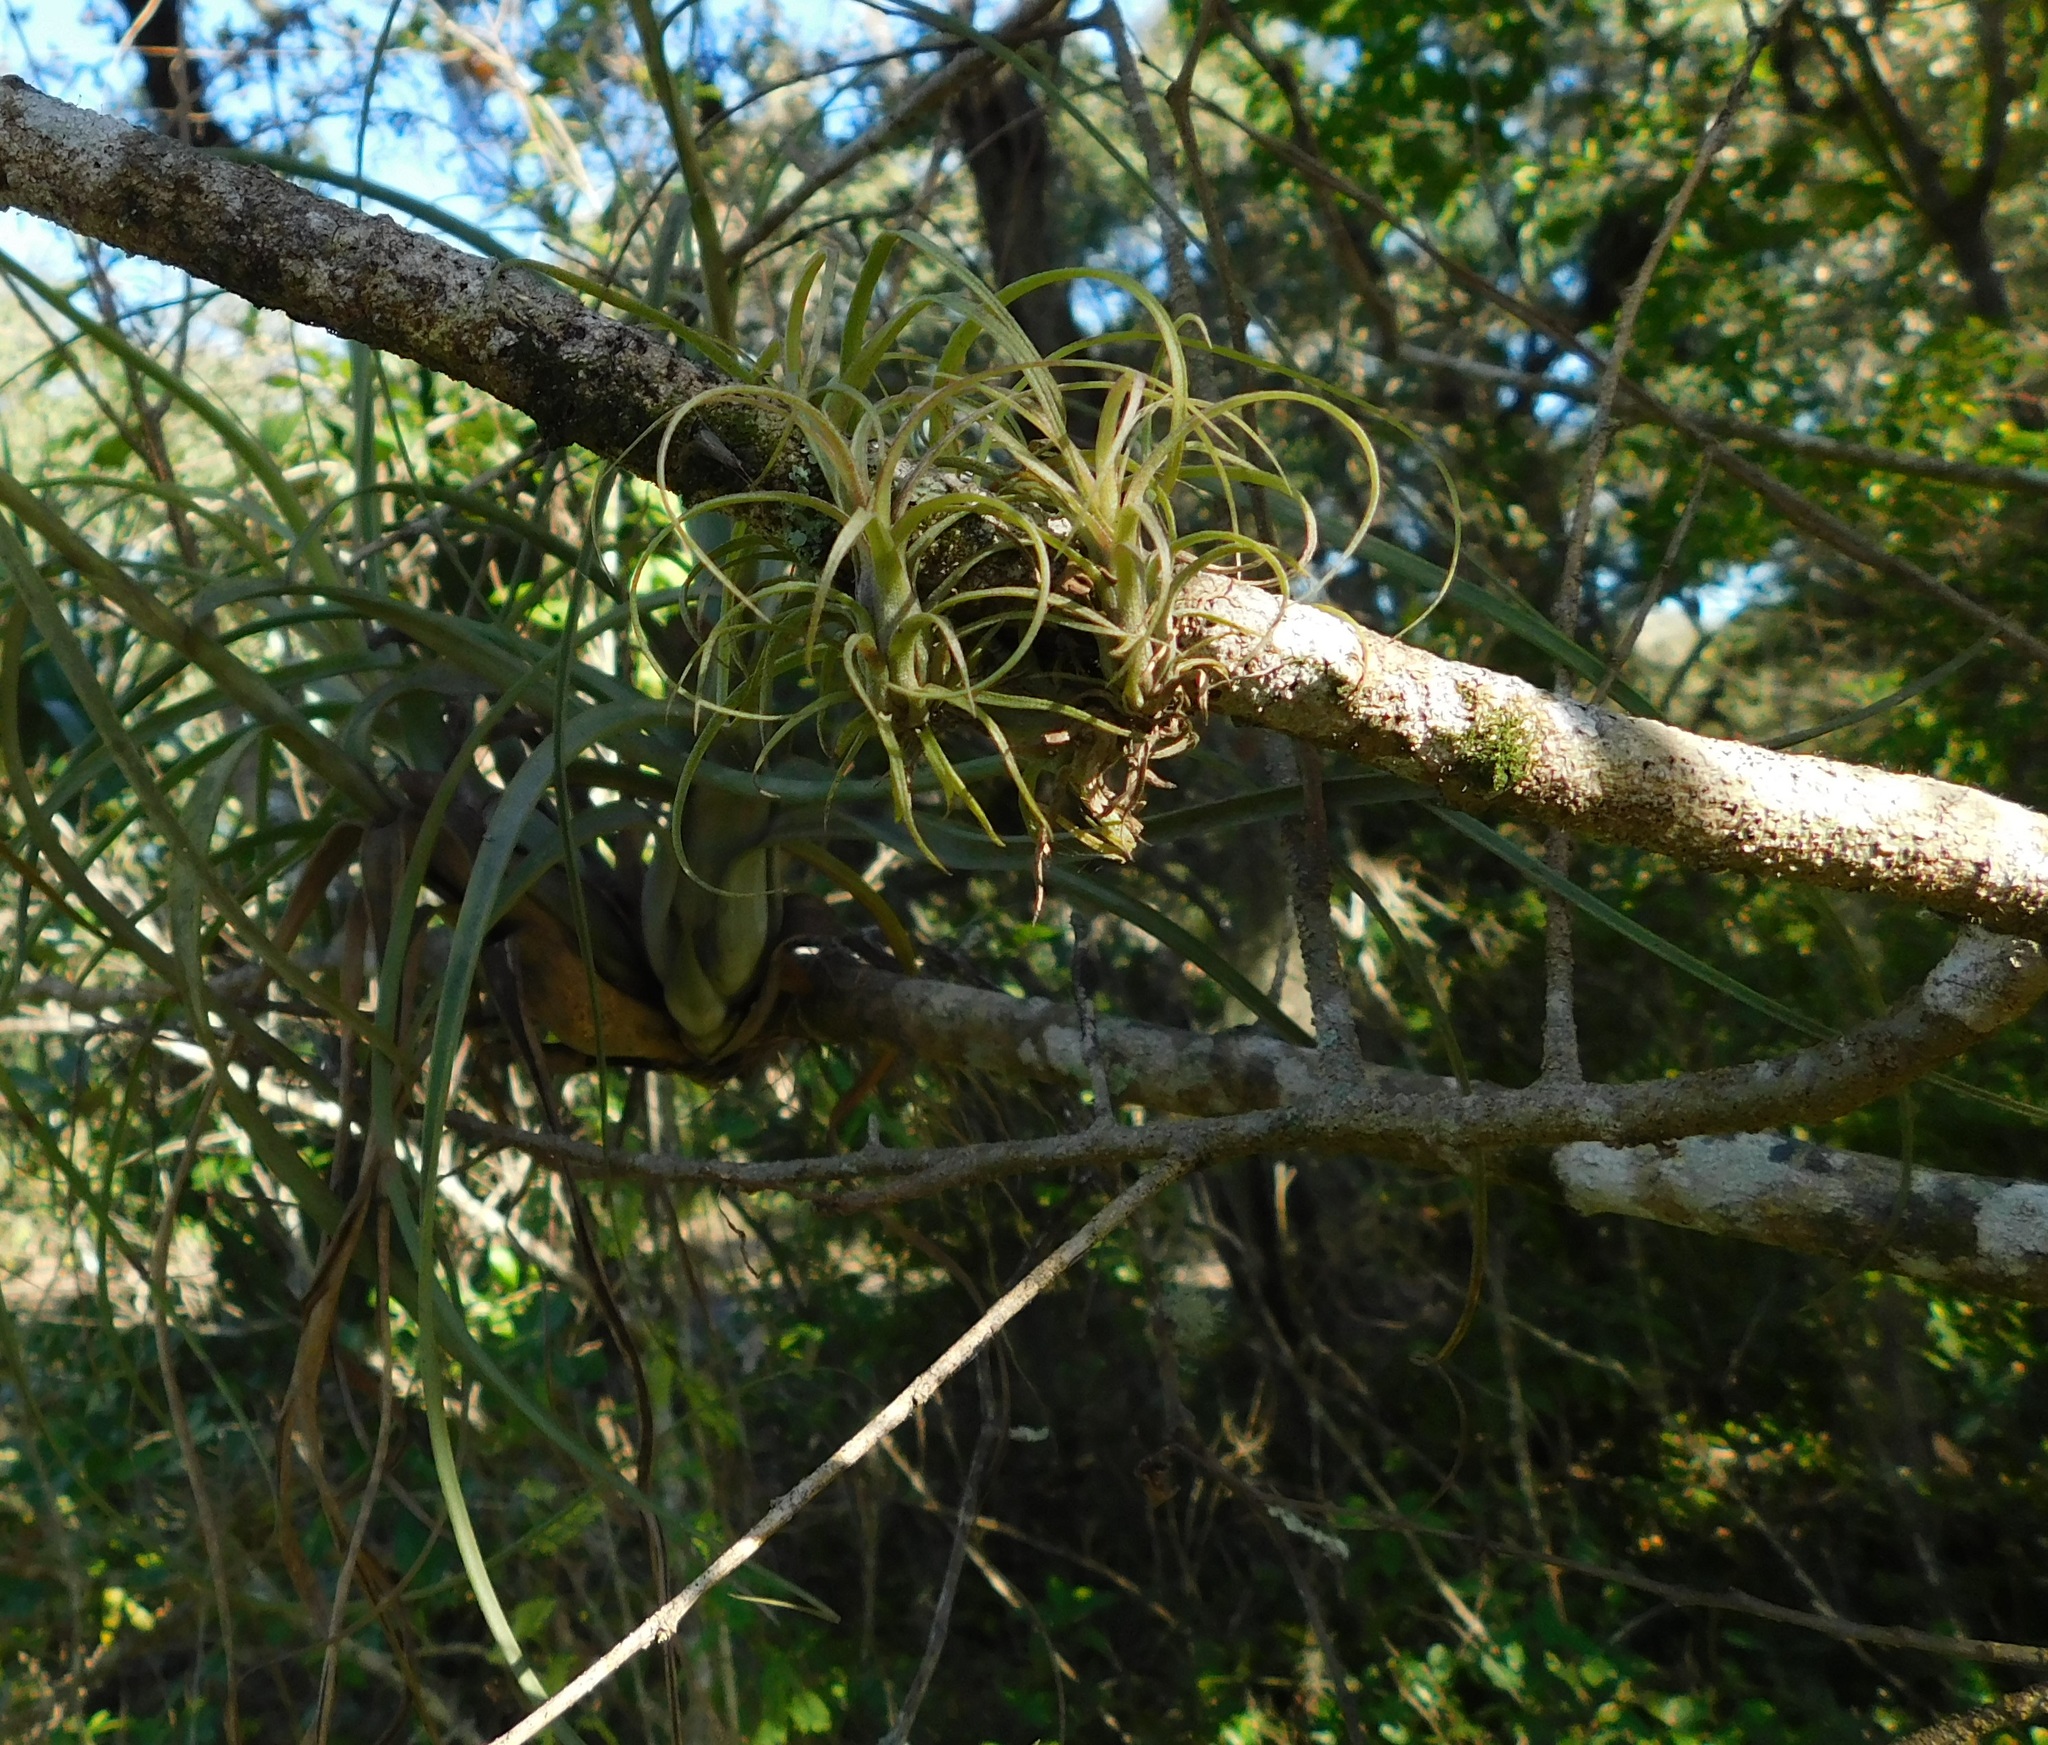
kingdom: Plantae
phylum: Tracheophyta
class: Liliopsida
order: Poales
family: Bromeliaceae
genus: Tillandsia
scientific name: Tillandsia balbisiana
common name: Northern needleleaf
